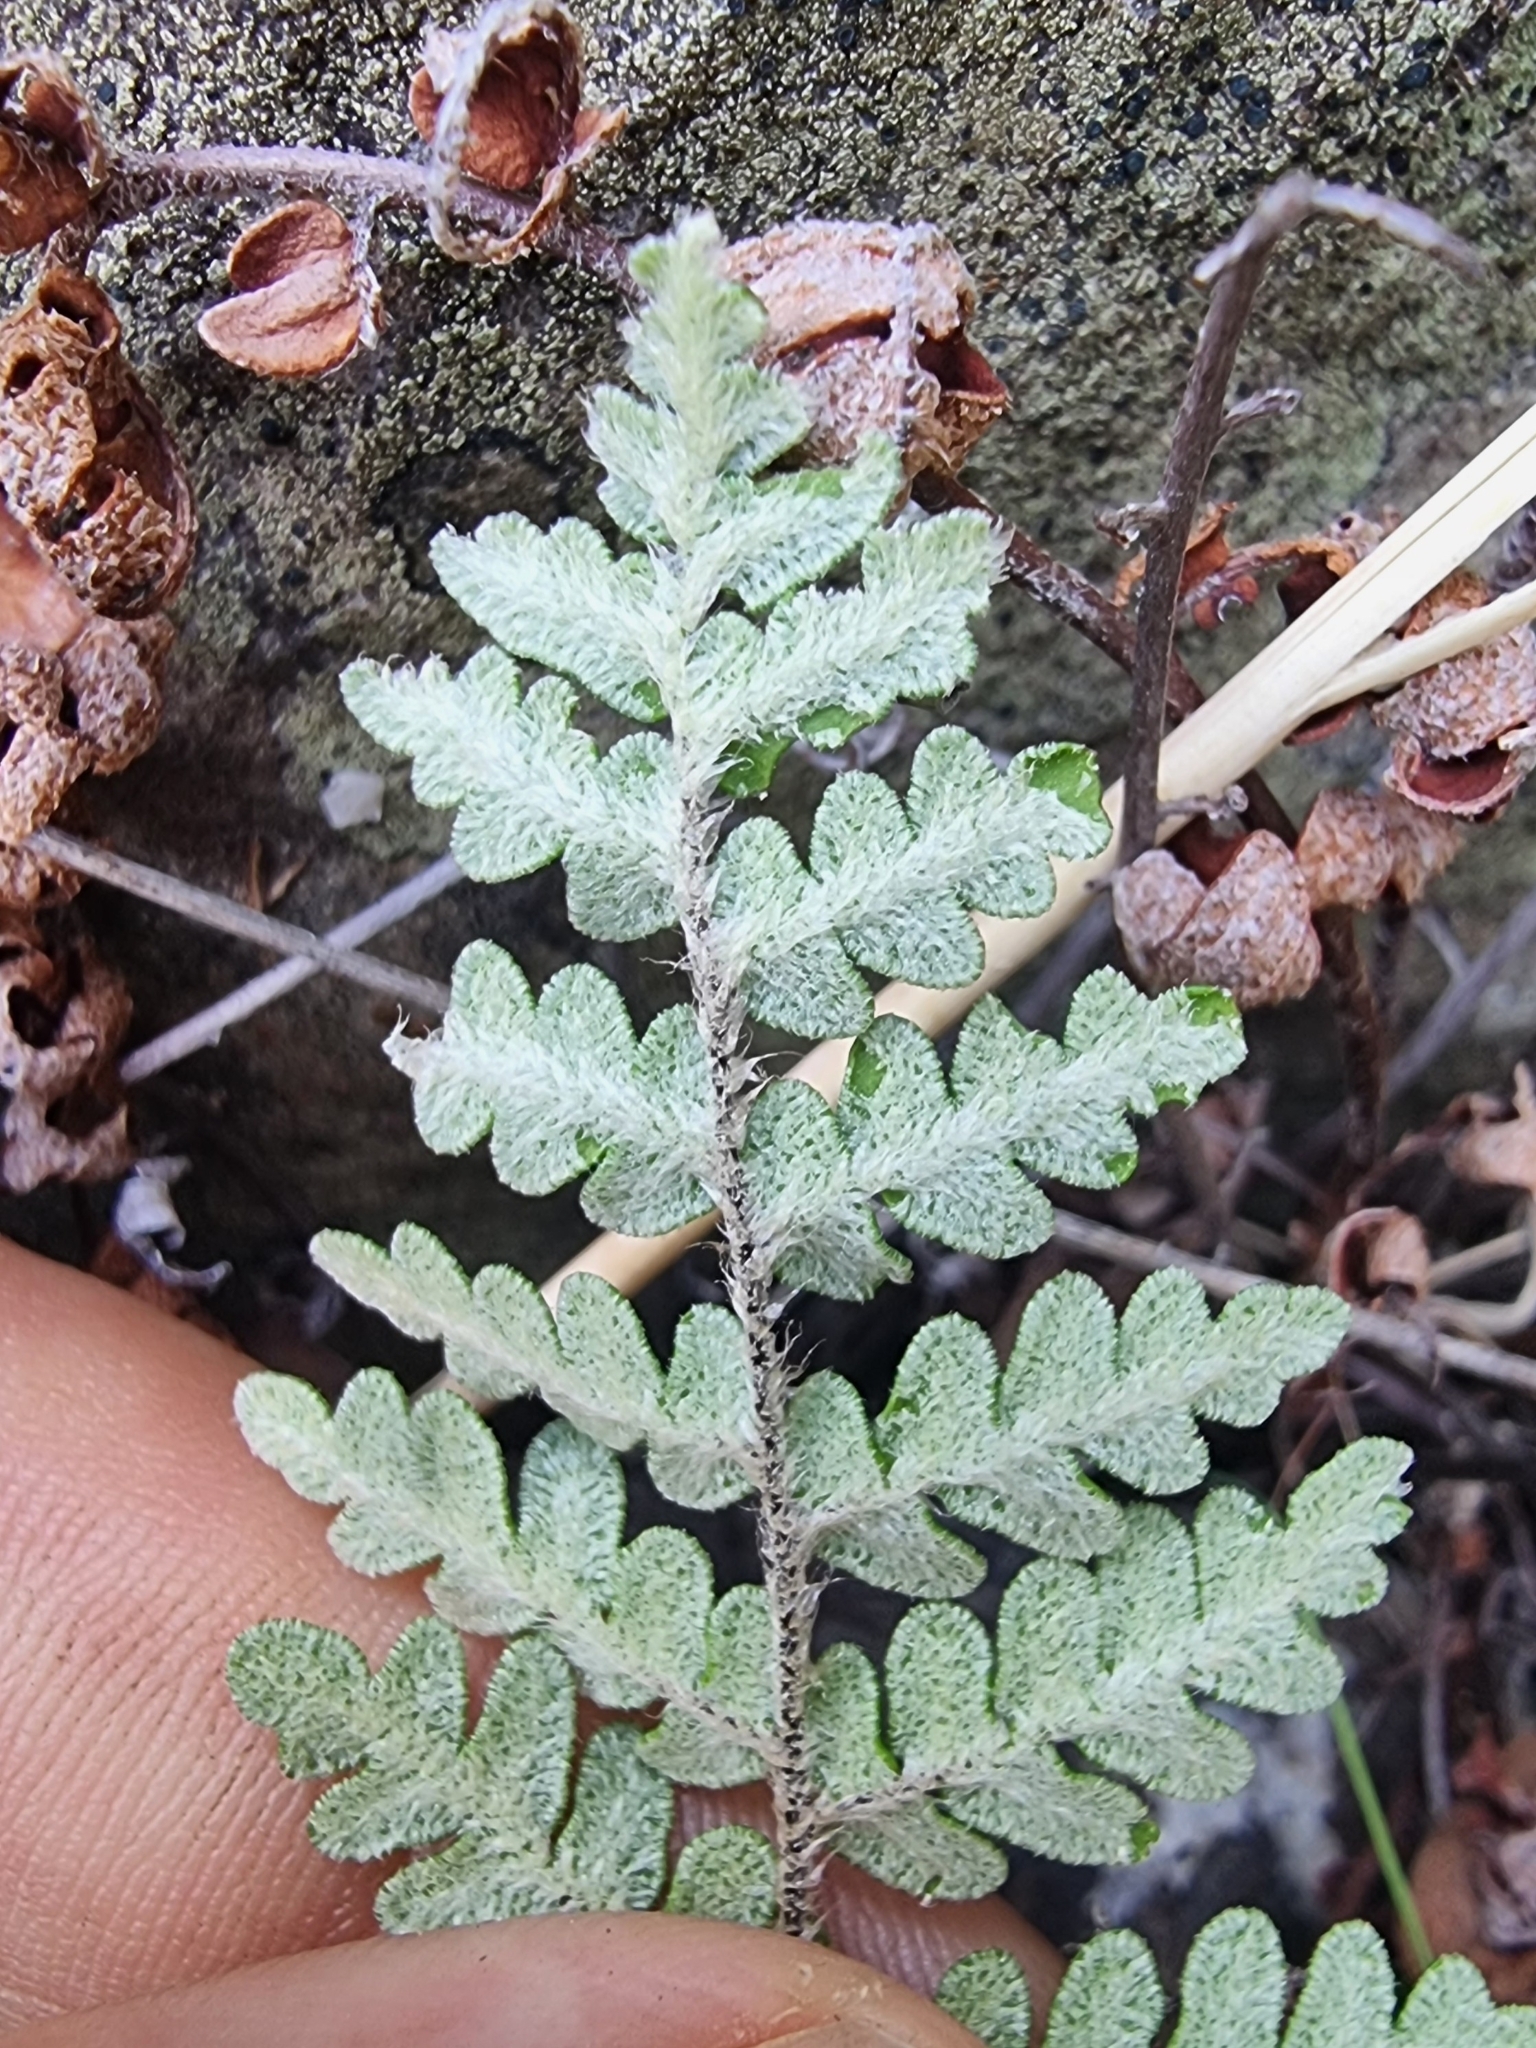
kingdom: Plantae
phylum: Tracheophyta
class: Polypodiopsida
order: Polypodiales
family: Pteridaceae
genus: Paragymnopteris
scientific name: Paragymnopteris marantae
